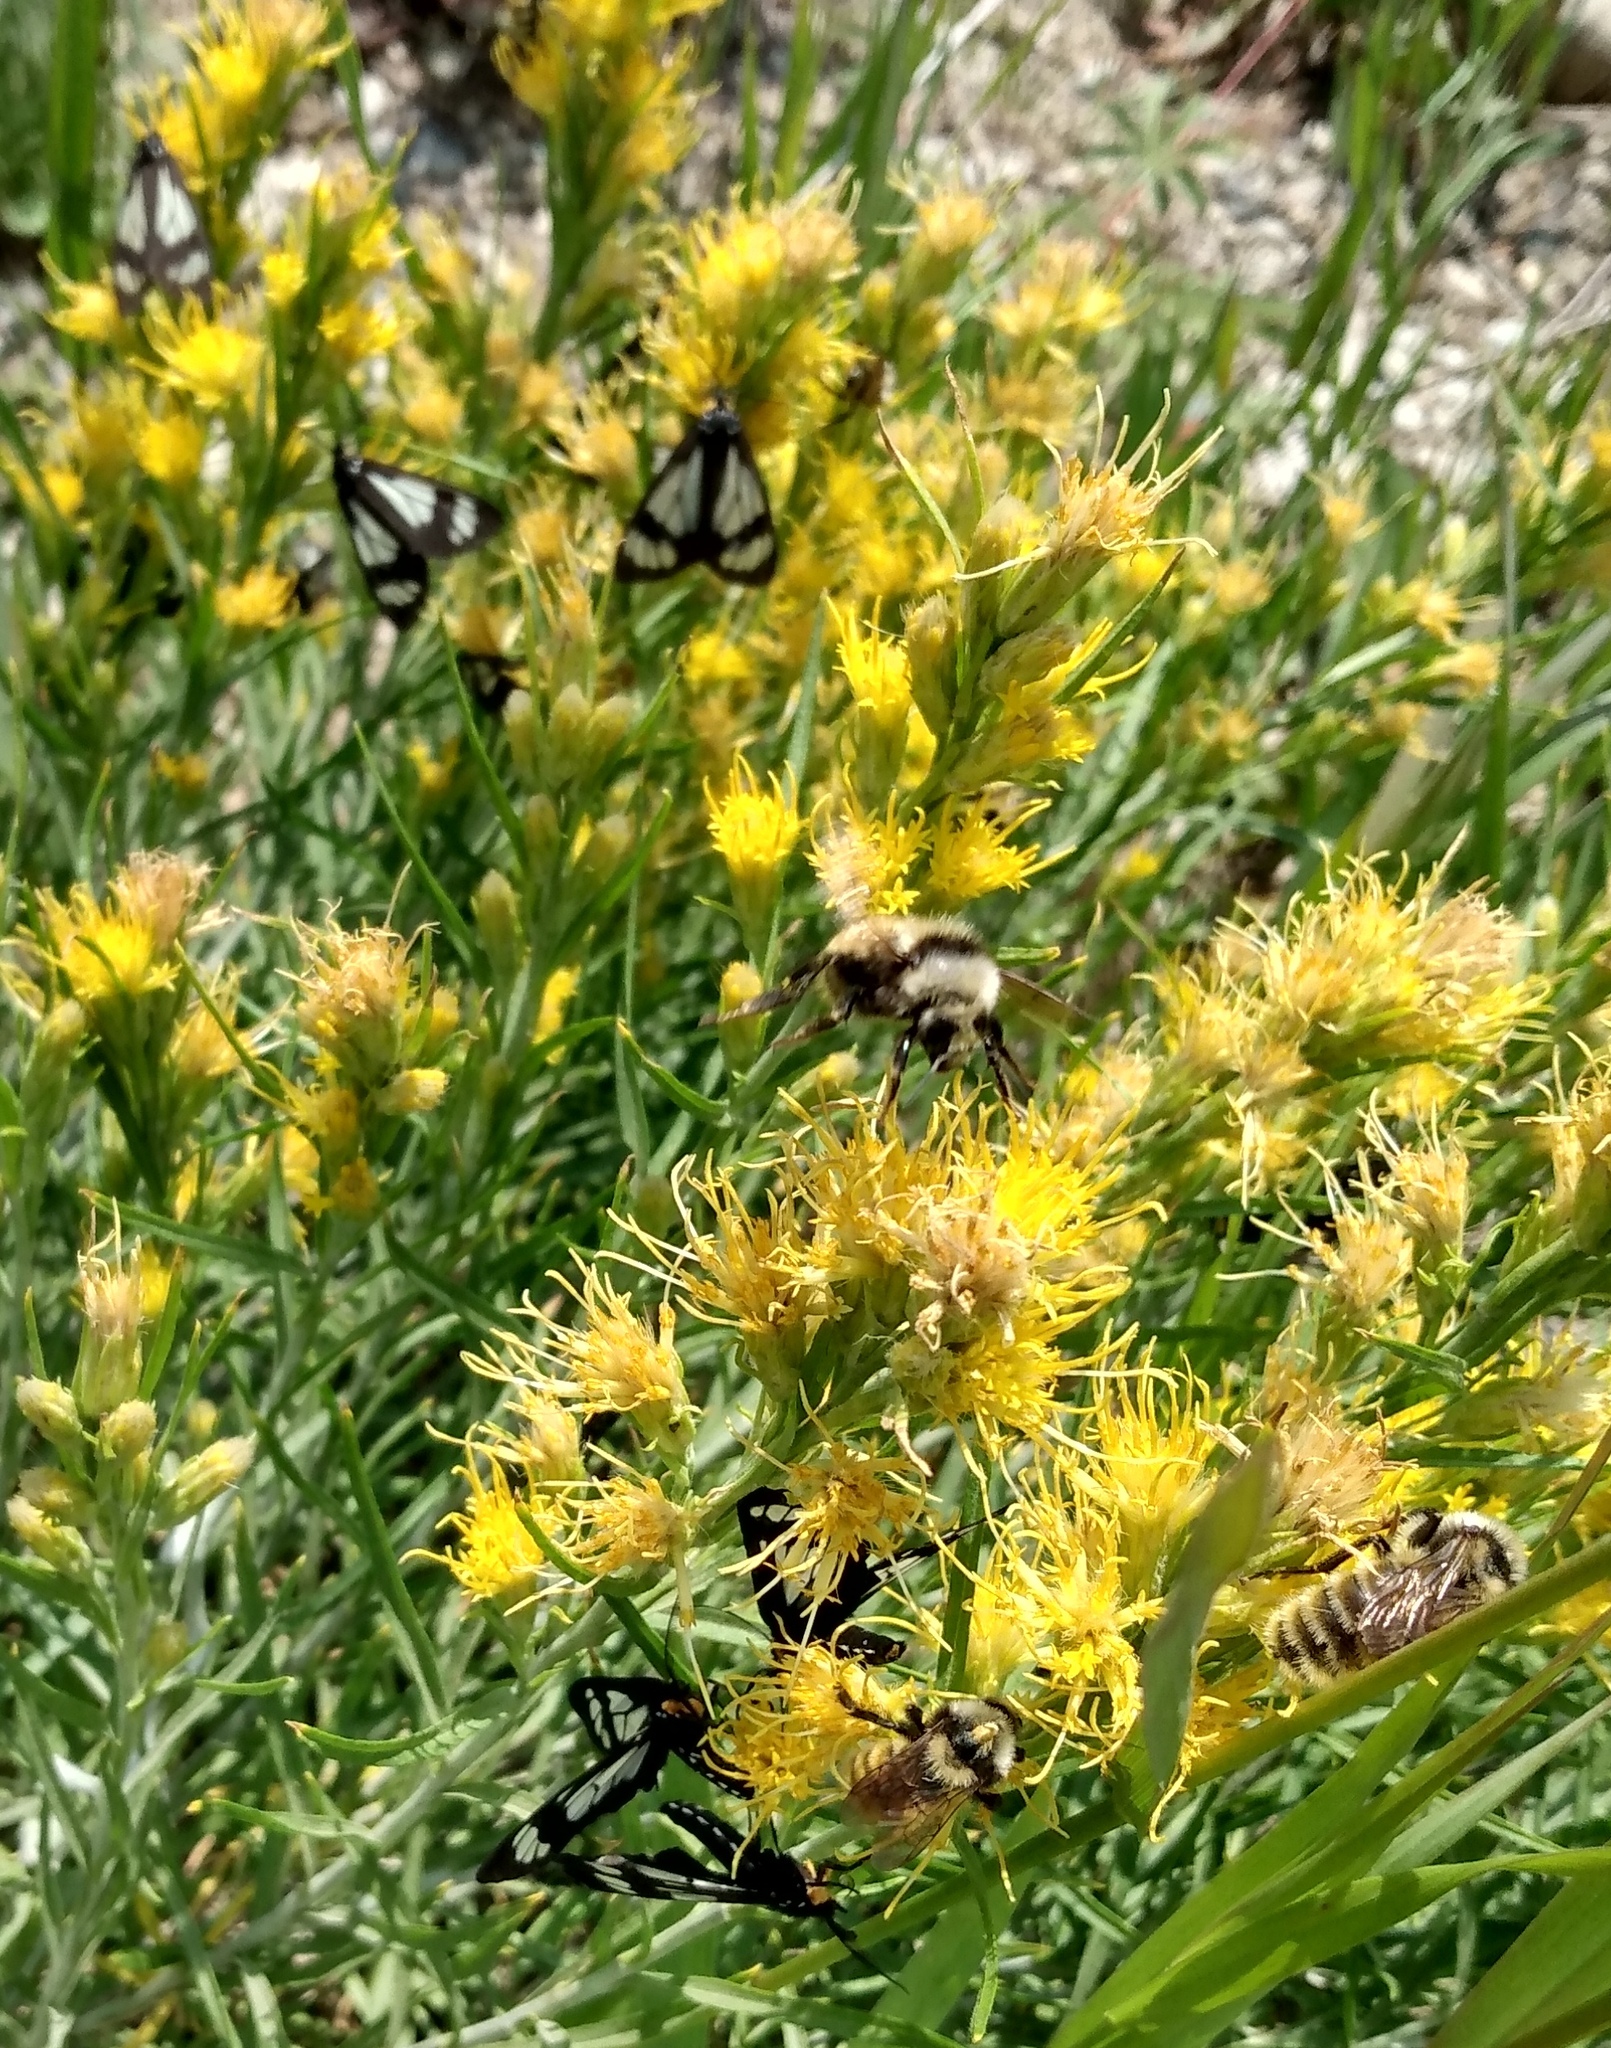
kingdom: Animalia
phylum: Arthropoda
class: Insecta
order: Lepidoptera
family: Erebidae
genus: Gnophaela
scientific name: Gnophaela vermiculata
